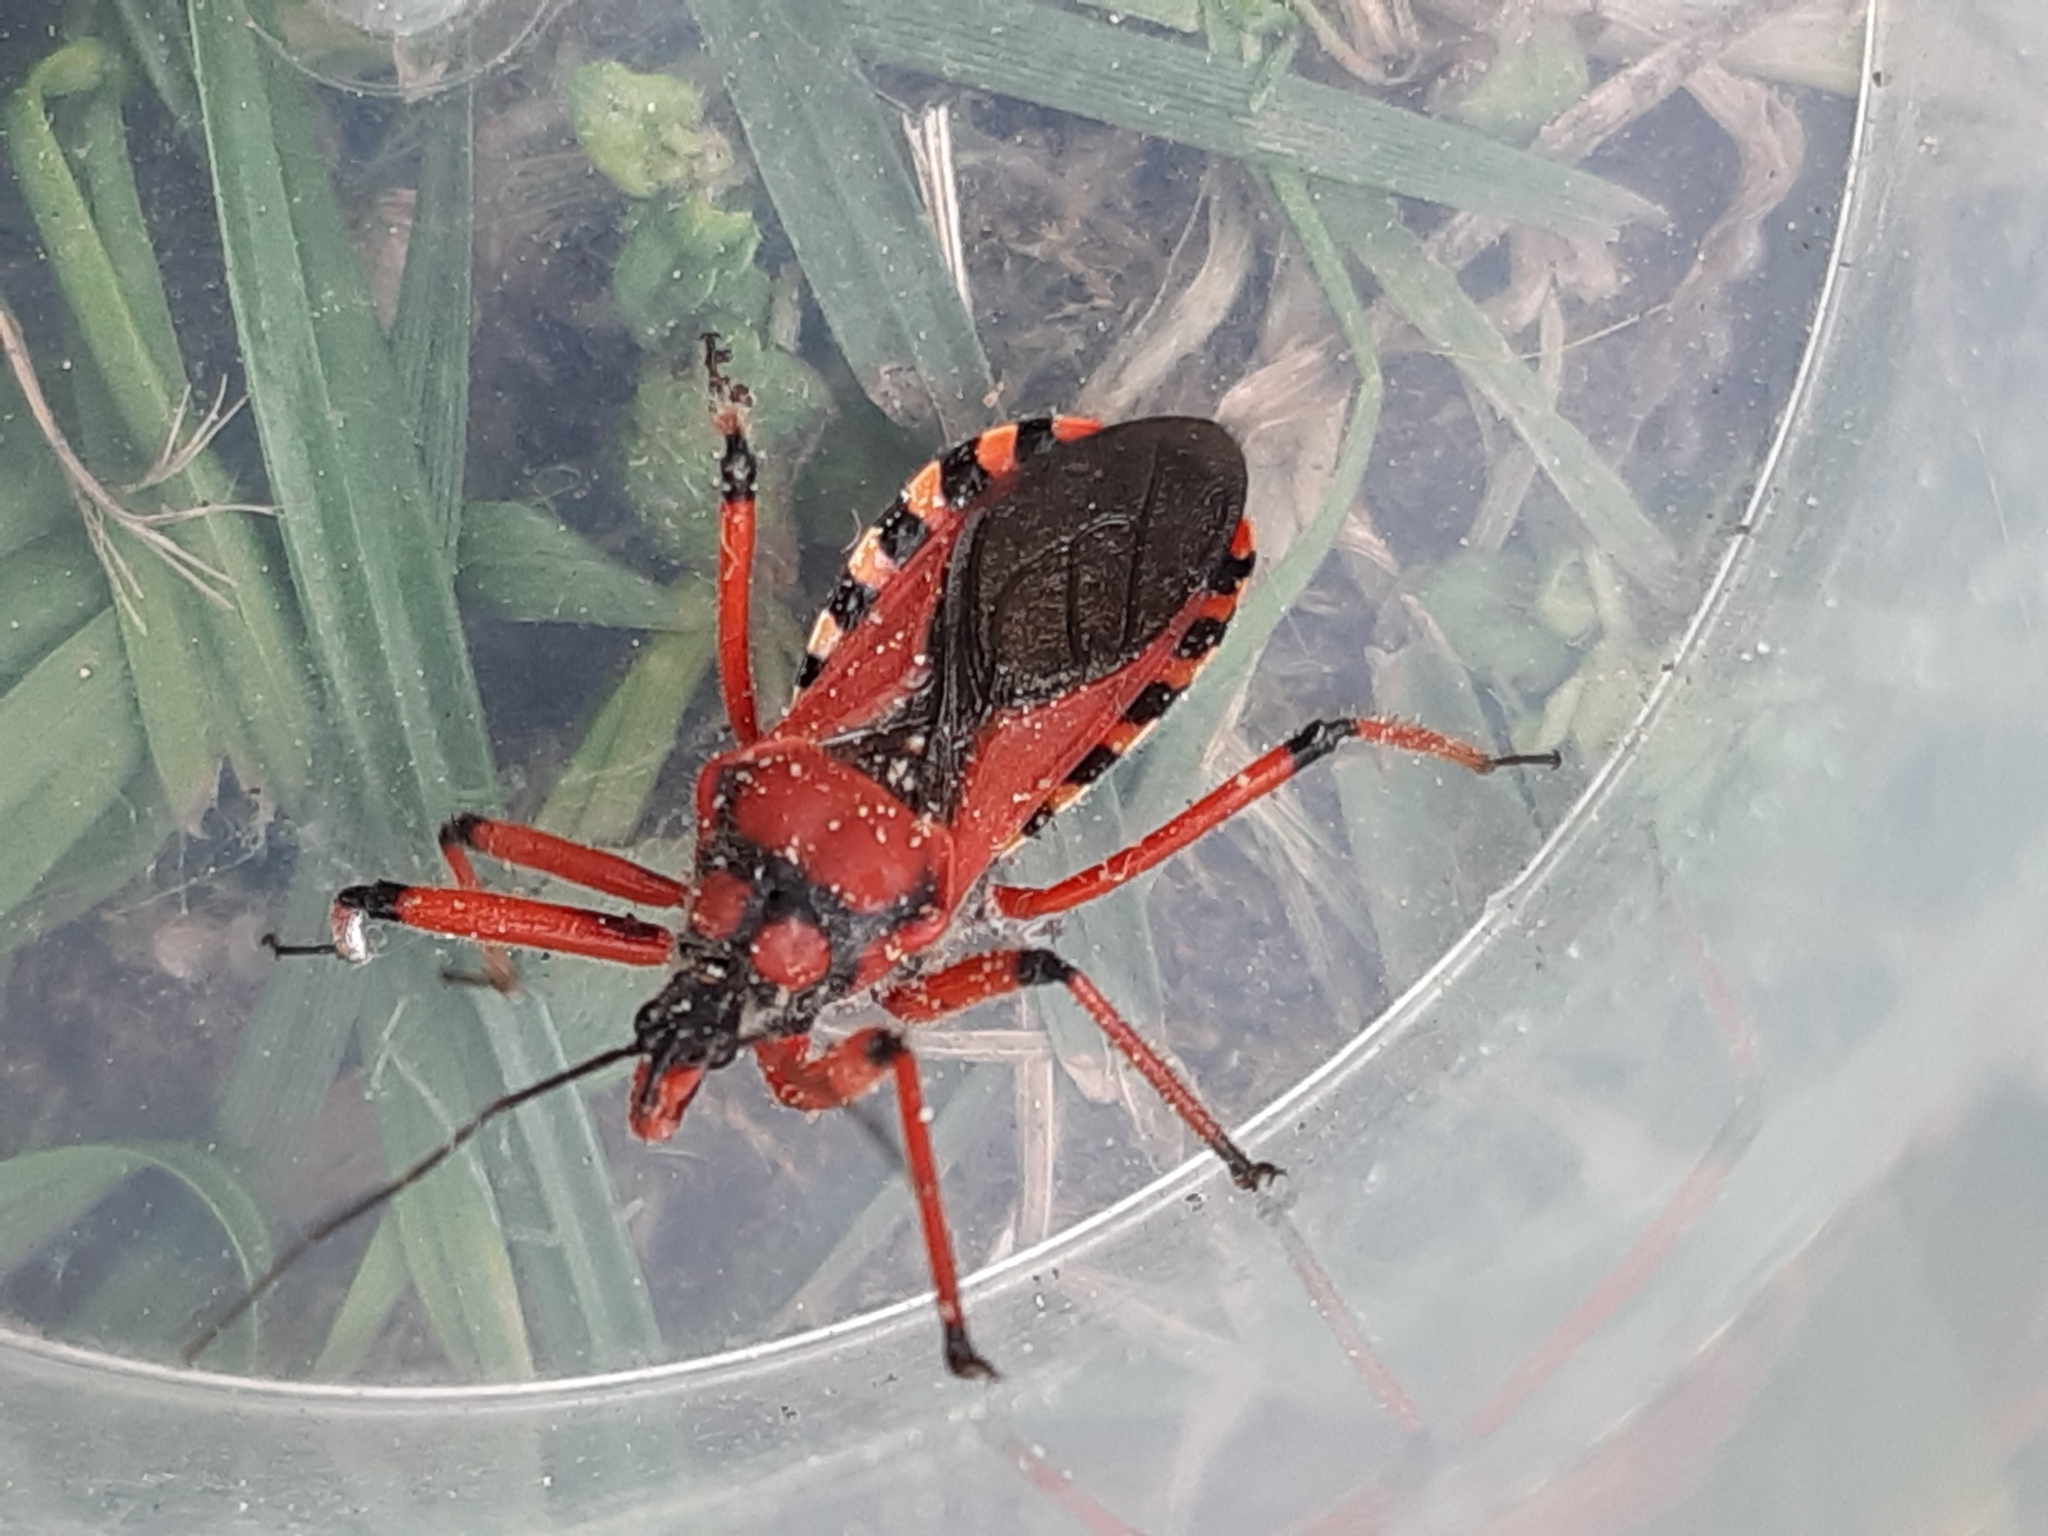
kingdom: Animalia
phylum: Arthropoda
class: Insecta
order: Hemiptera
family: Reduviidae
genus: Rhynocoris
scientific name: Rhynocoris iracundus
